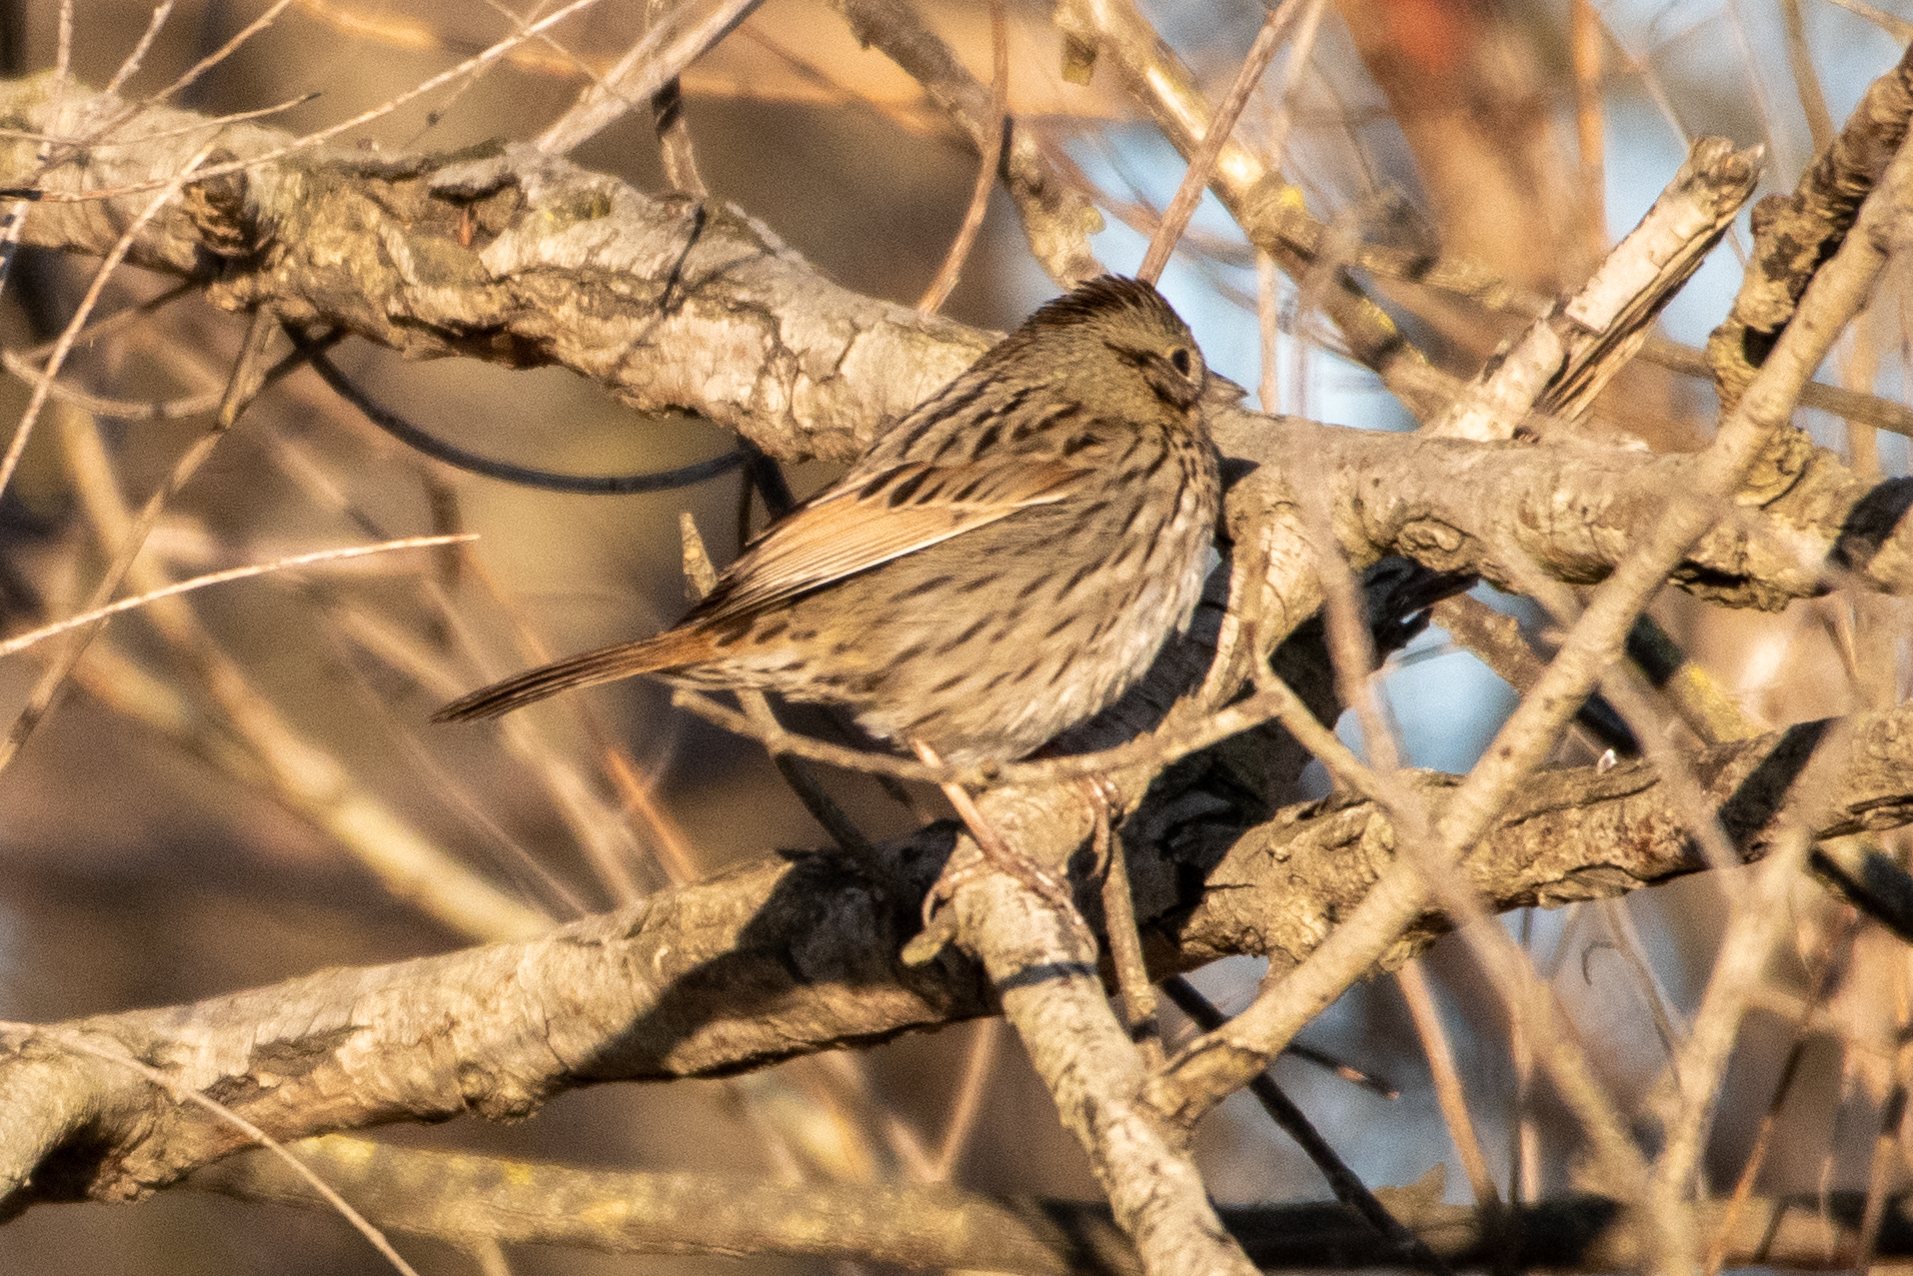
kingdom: Animalia
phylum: Chordata
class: Aves
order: Passeriformes
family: Passerellidae
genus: Melospiza
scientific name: Melospiza lincolnii
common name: Lincoln's sparrow
